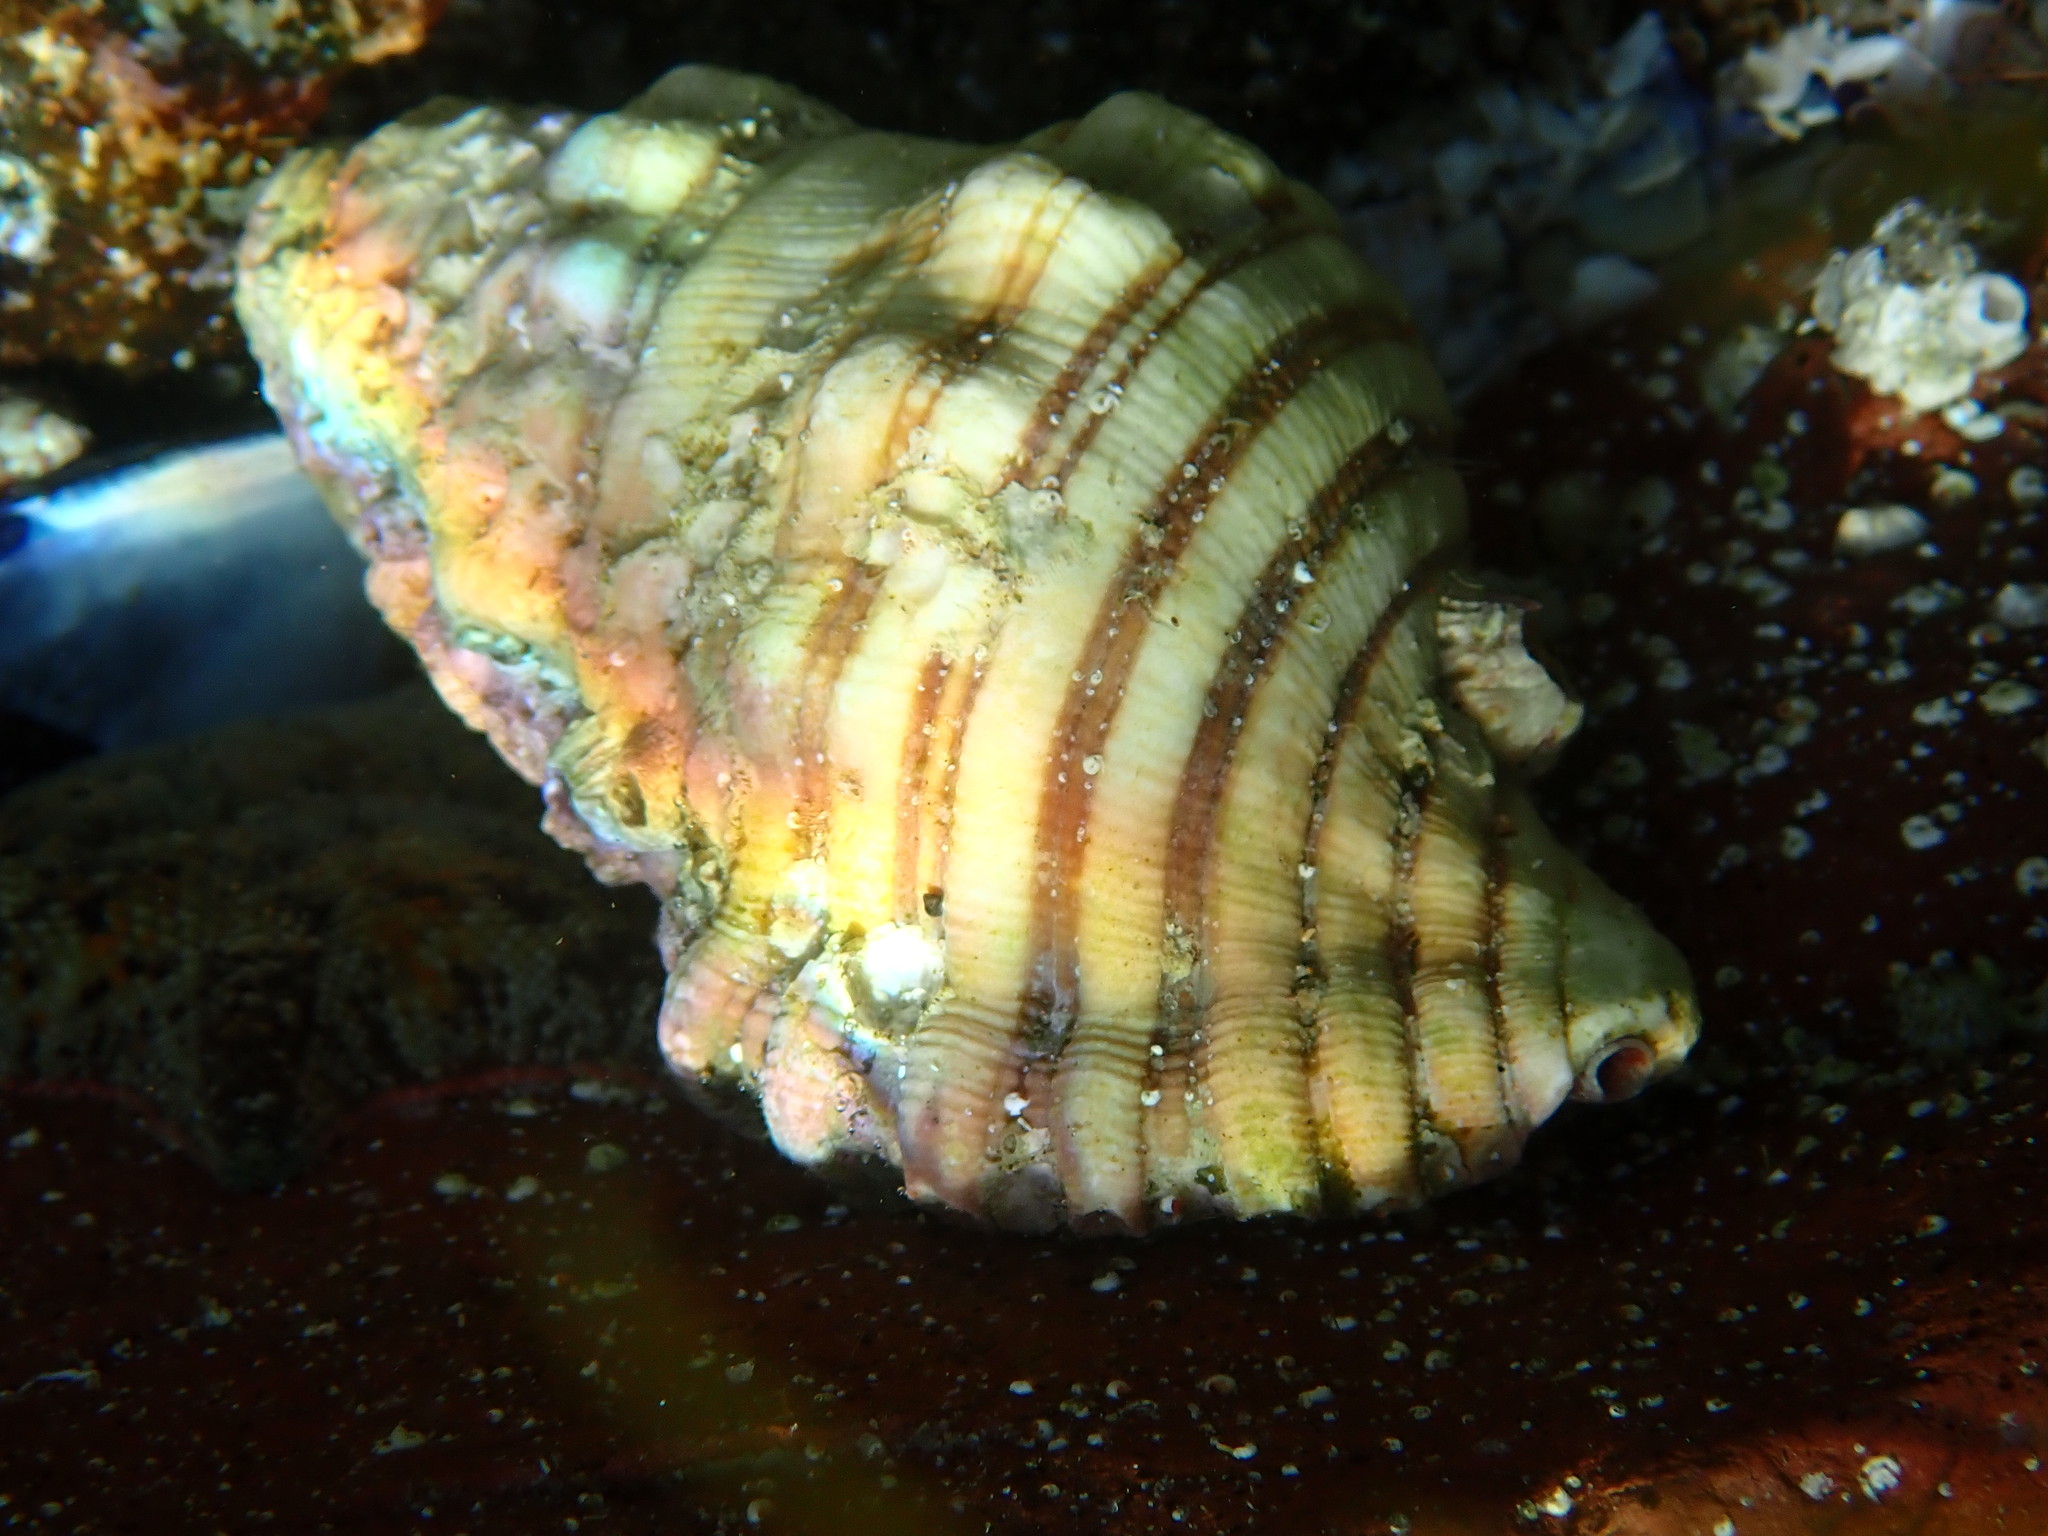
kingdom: Animalia
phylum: Mollusca
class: Gastropoda
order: Littorinimorpha
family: Cymatiidae
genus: Cabestana
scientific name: Cabestana spengleri
